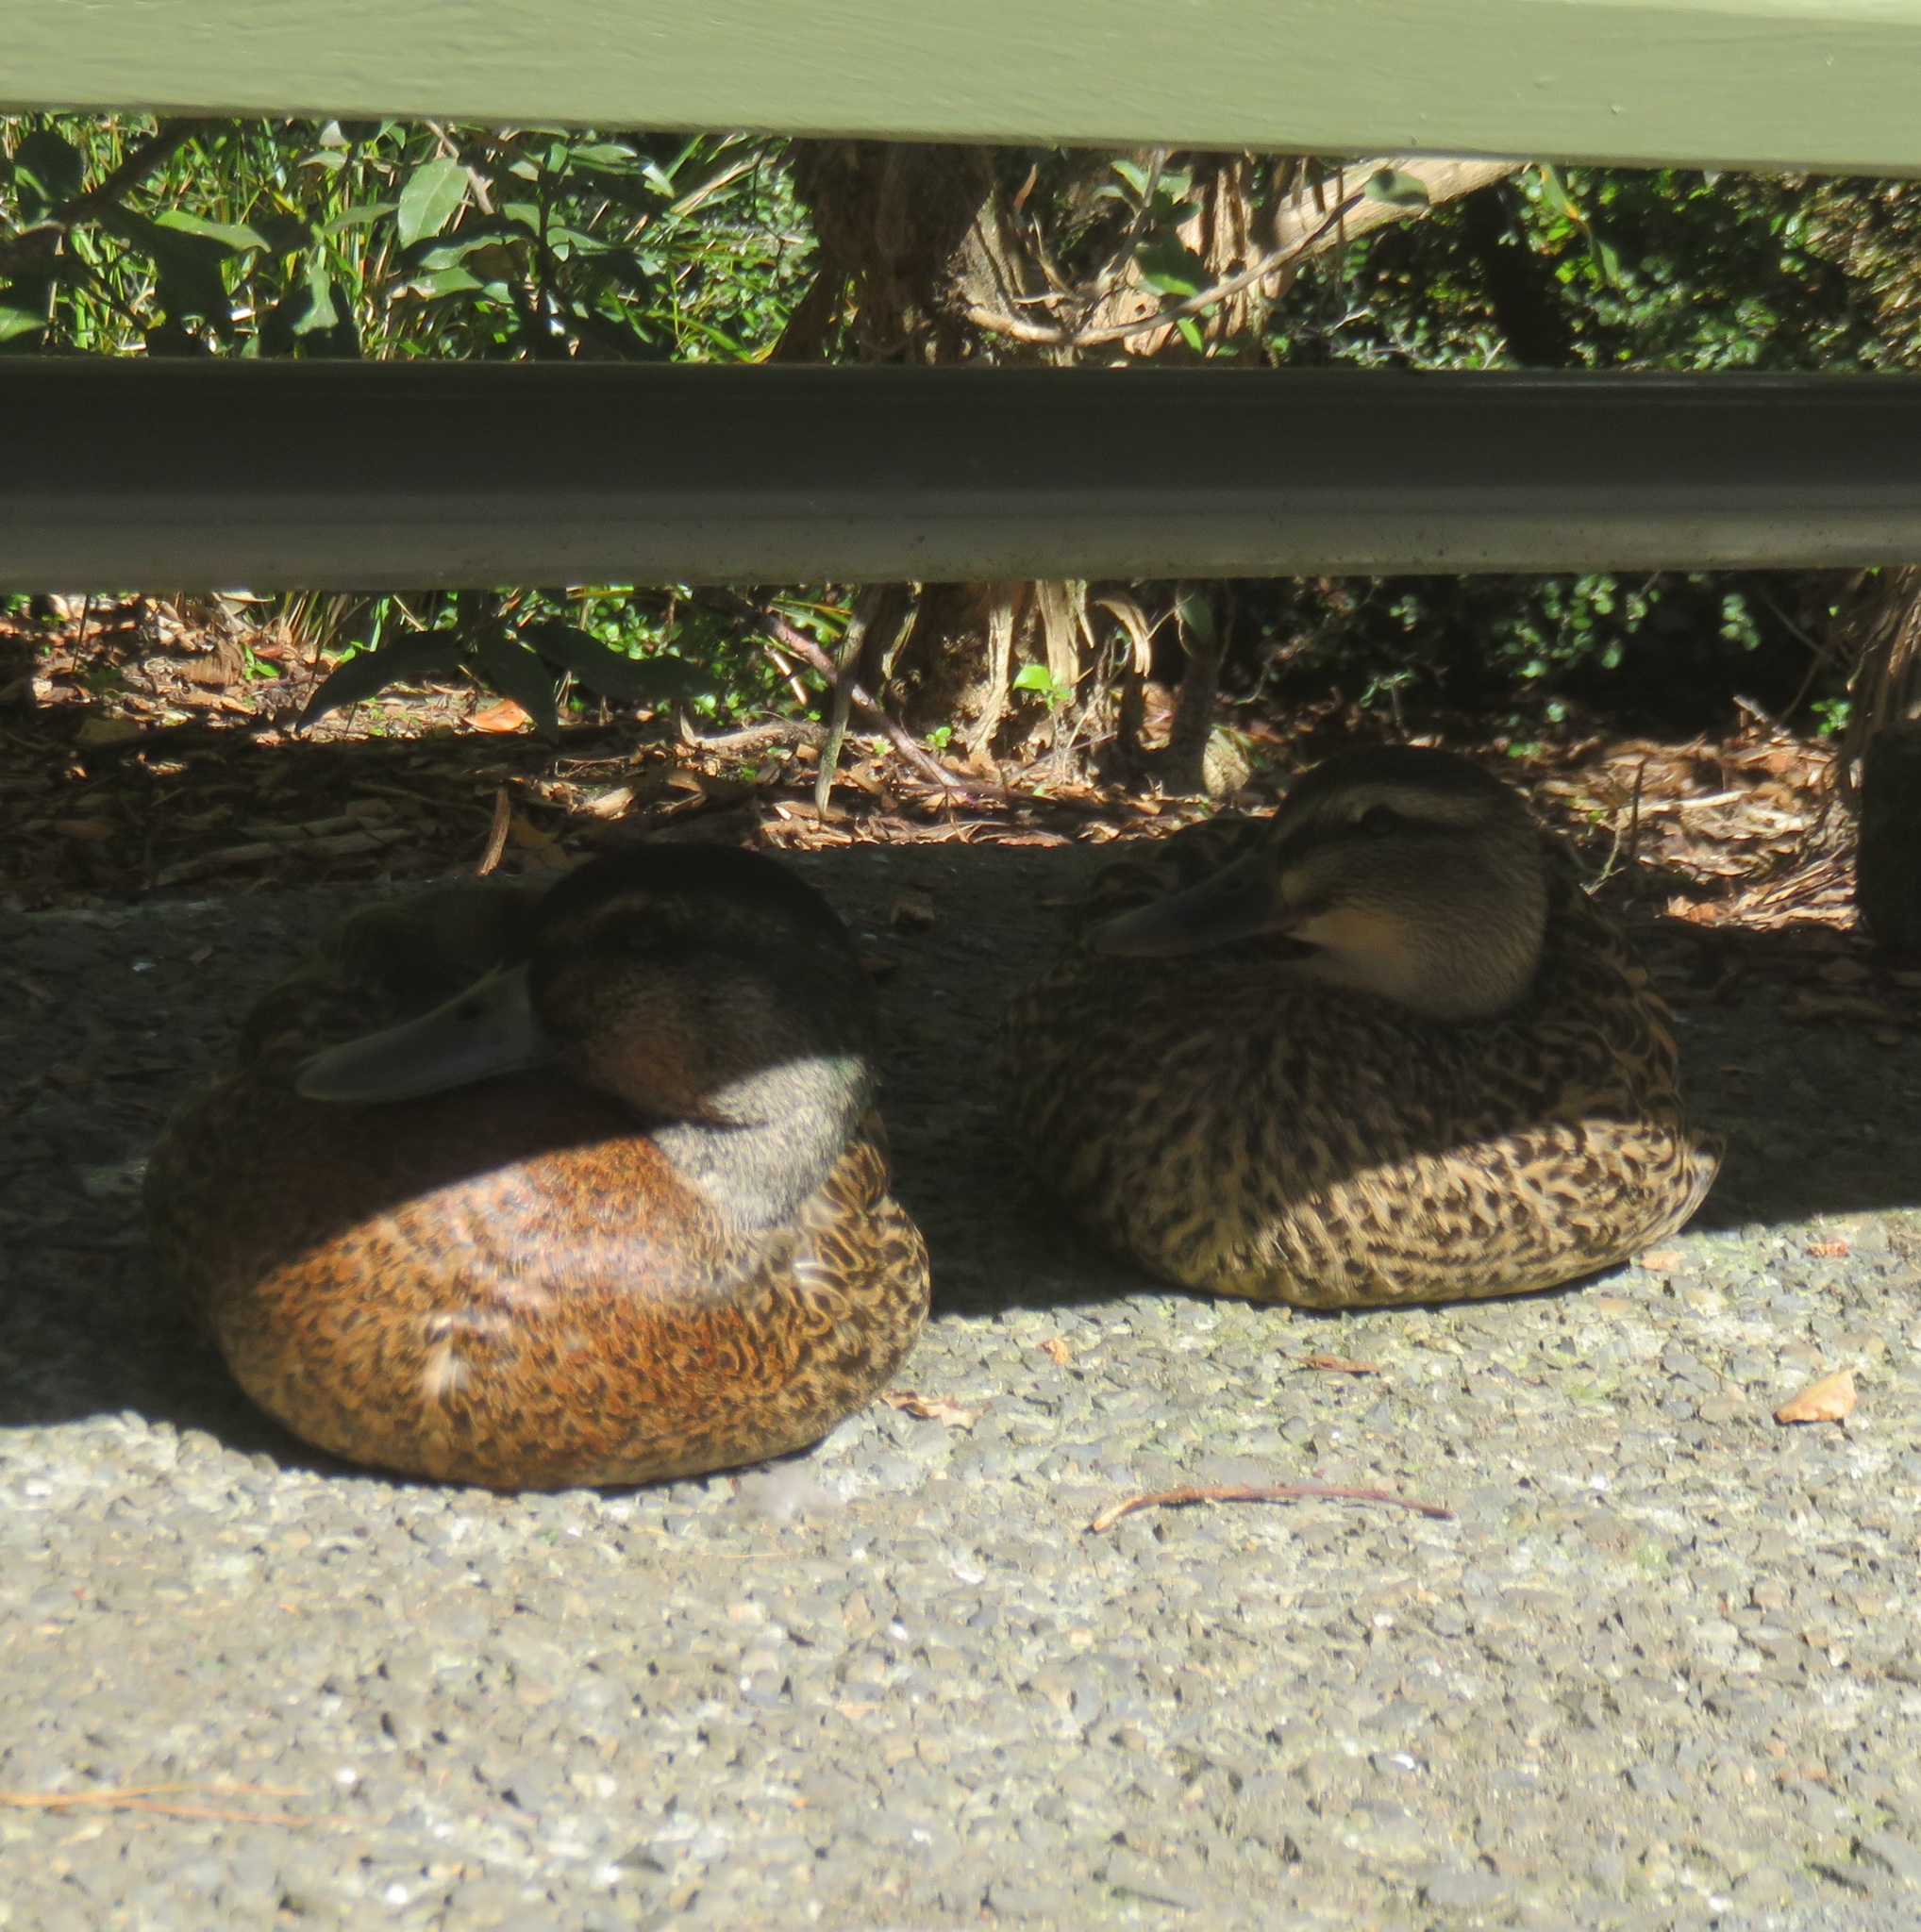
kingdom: Animalia
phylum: Chordata
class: Aves
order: Anseriformes
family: Anatidae
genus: Anas
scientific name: Anas
